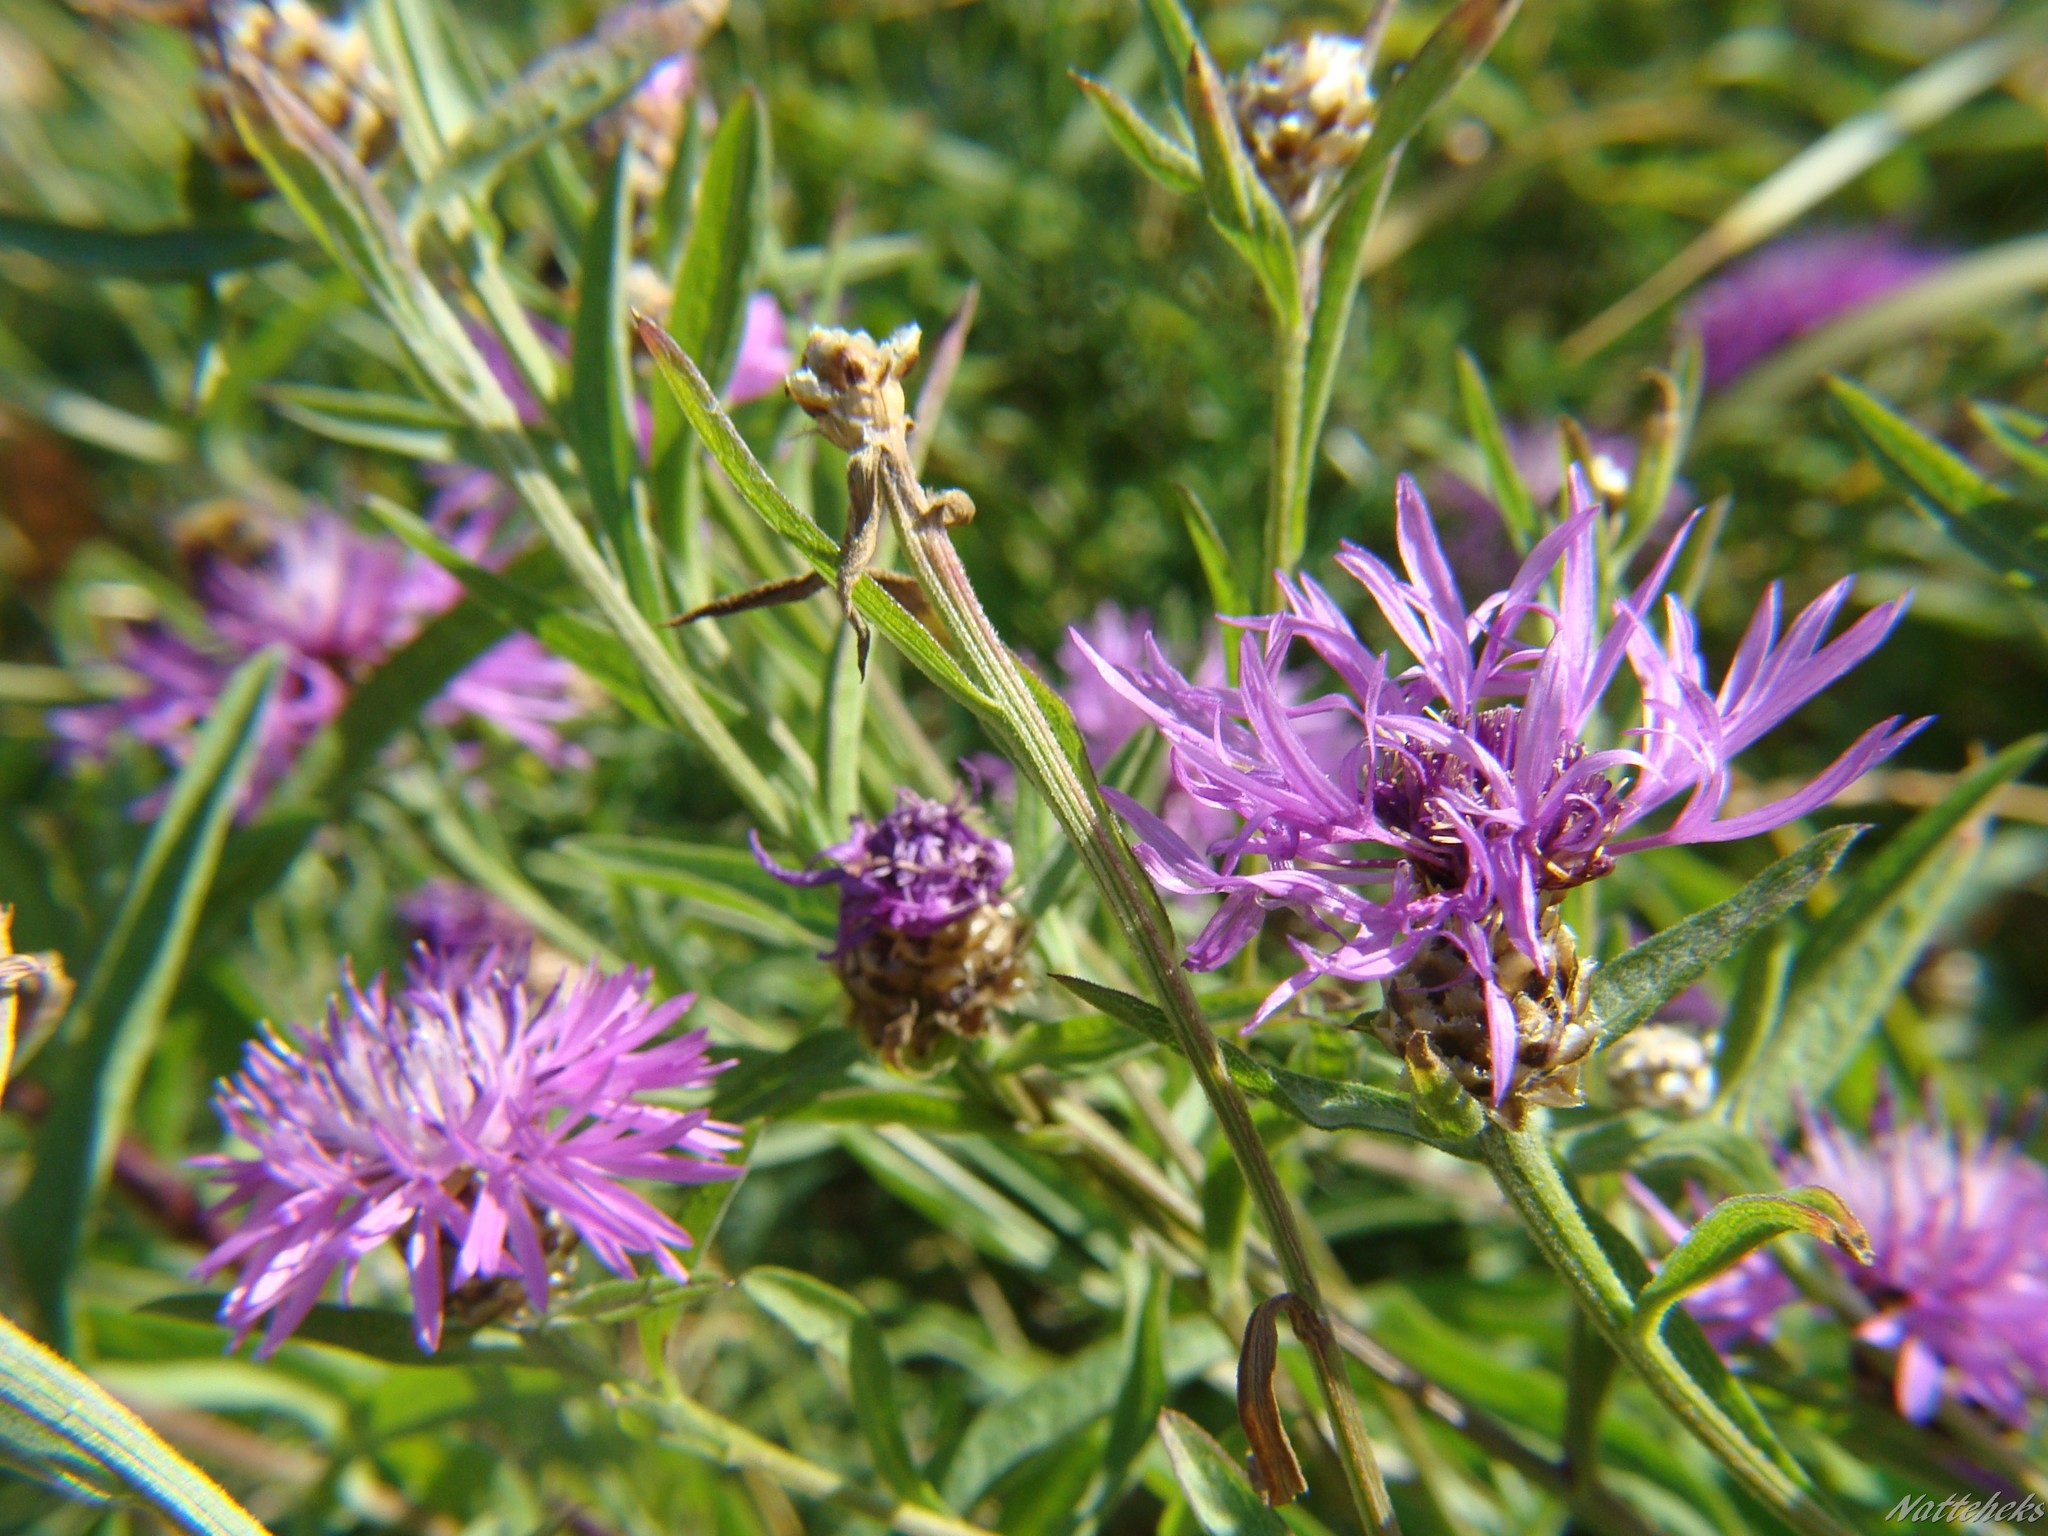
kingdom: Plantae
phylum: Tracheophyta
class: Magnoliopsida
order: Asterales
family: Asteraceae
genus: Centaurea
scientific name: Centaurea jacea
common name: Brown knapweed
